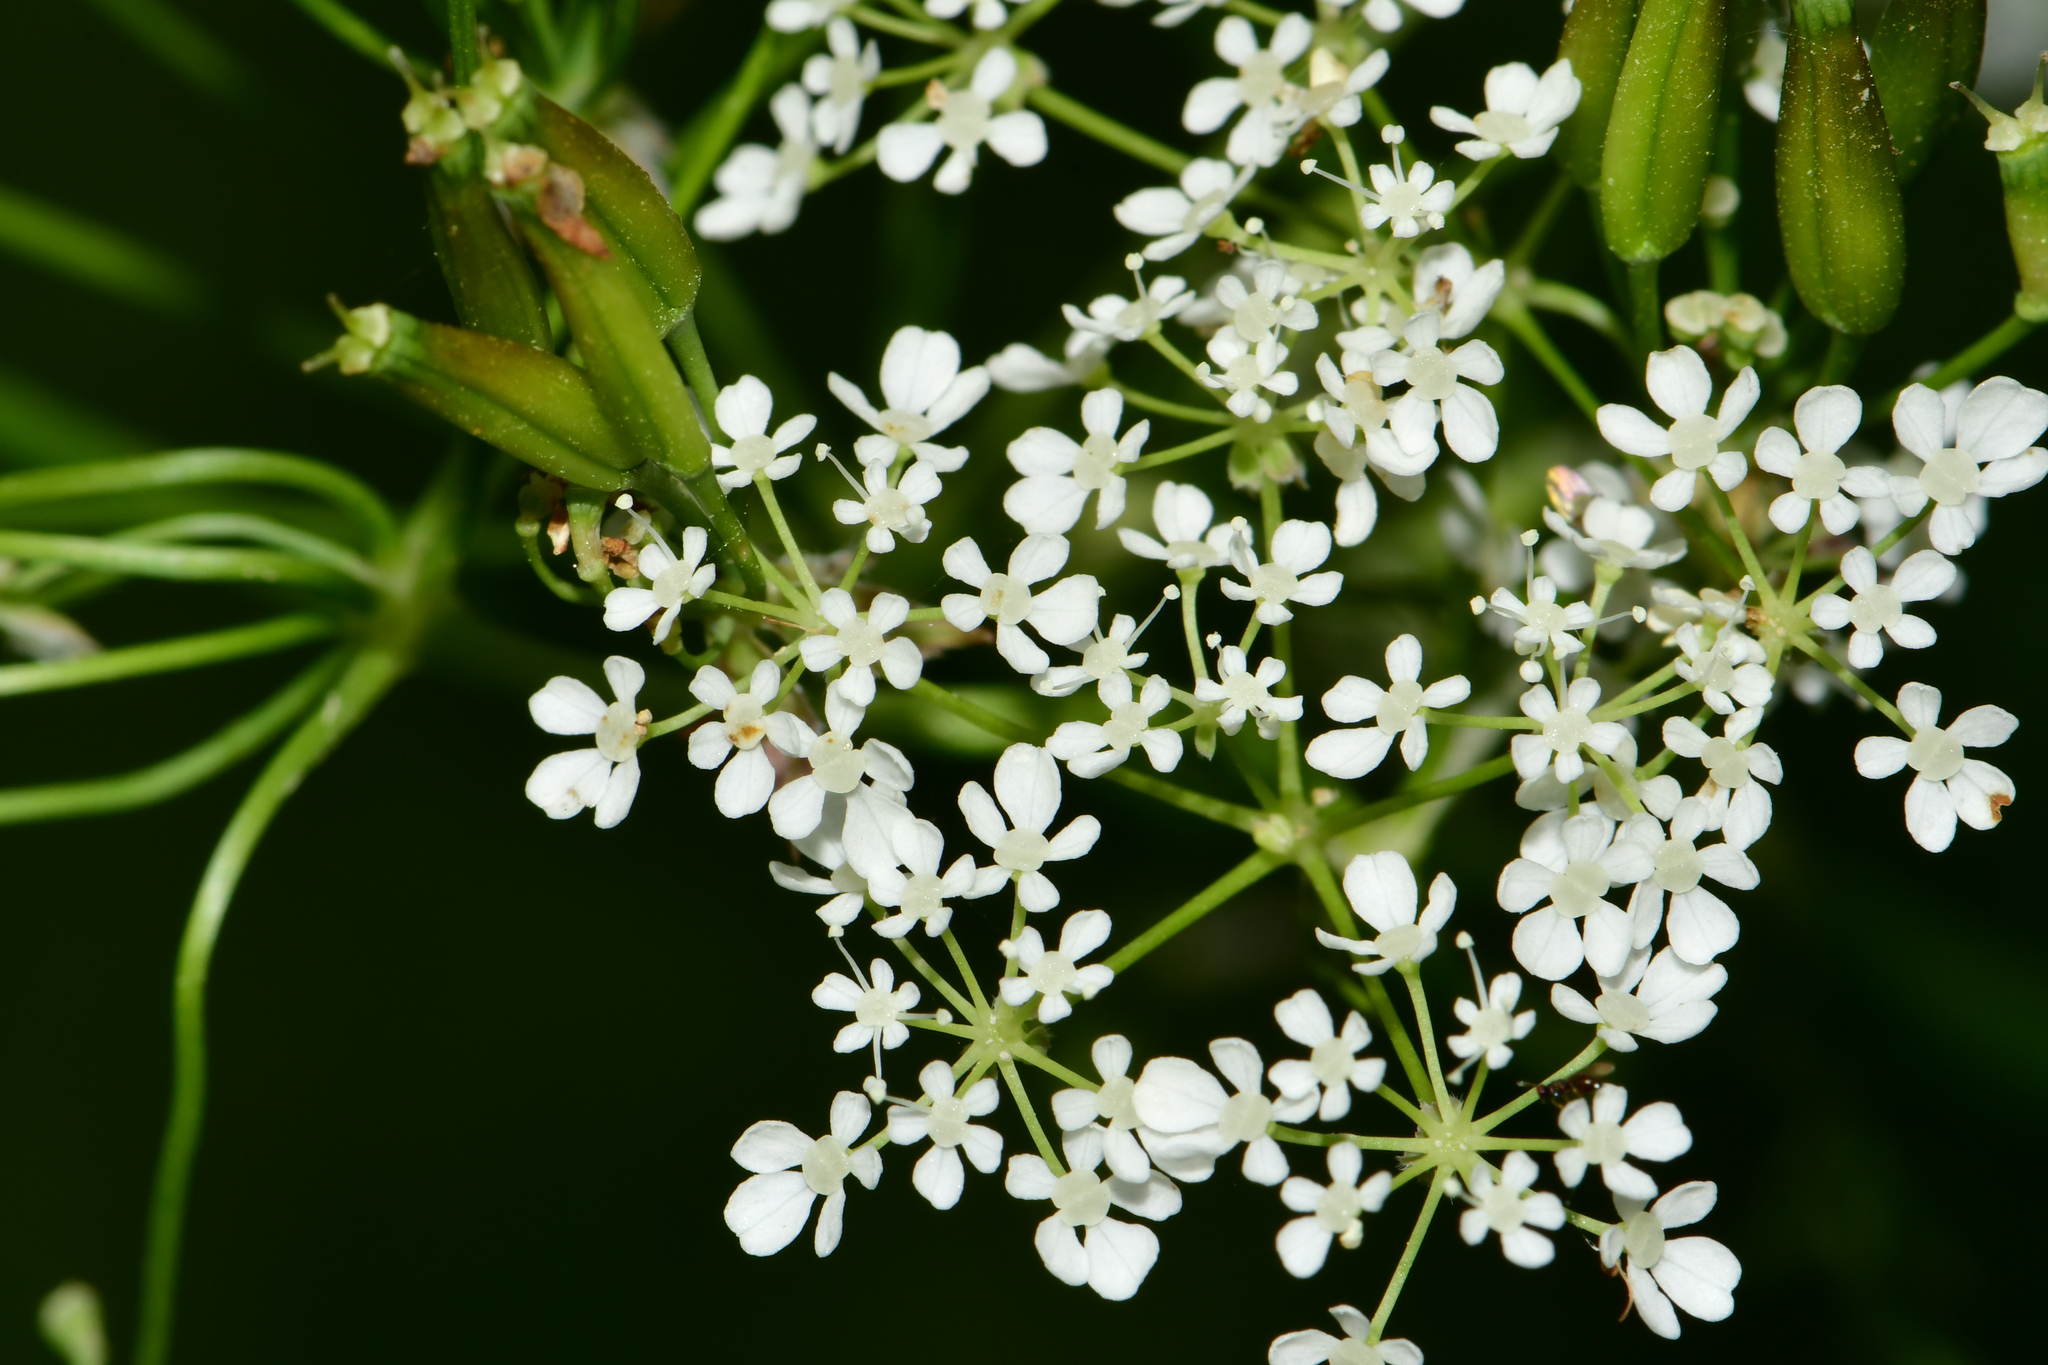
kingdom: Plantae
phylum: Tracheophyta
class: Magnoliopsida
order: Apiales
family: Apiaceae
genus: Anthriscus
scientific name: Anthriscus sylvestris
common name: Cow parsley
